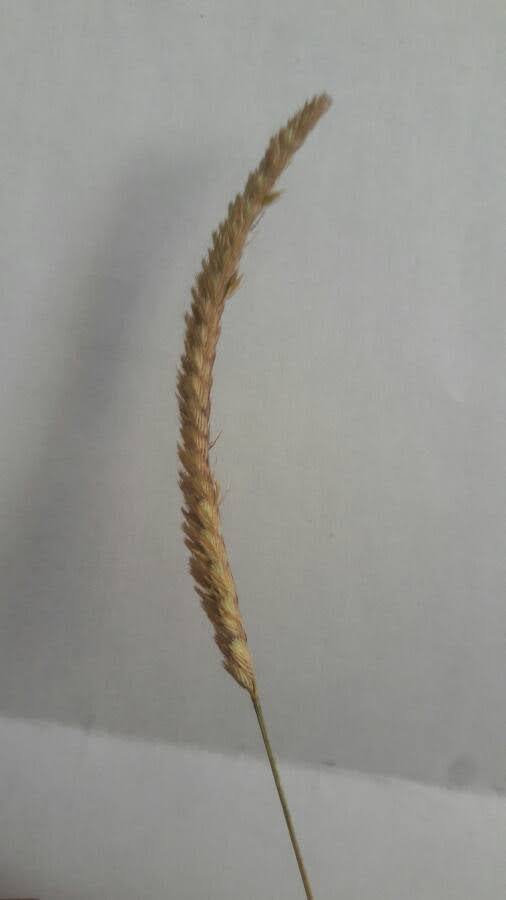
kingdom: Plantae
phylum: Tracheophyta
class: Liliopsida
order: Poales
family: Poaceae
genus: Cynosurus
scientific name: Cynosurus cristatus
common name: Crested dog's-tail
